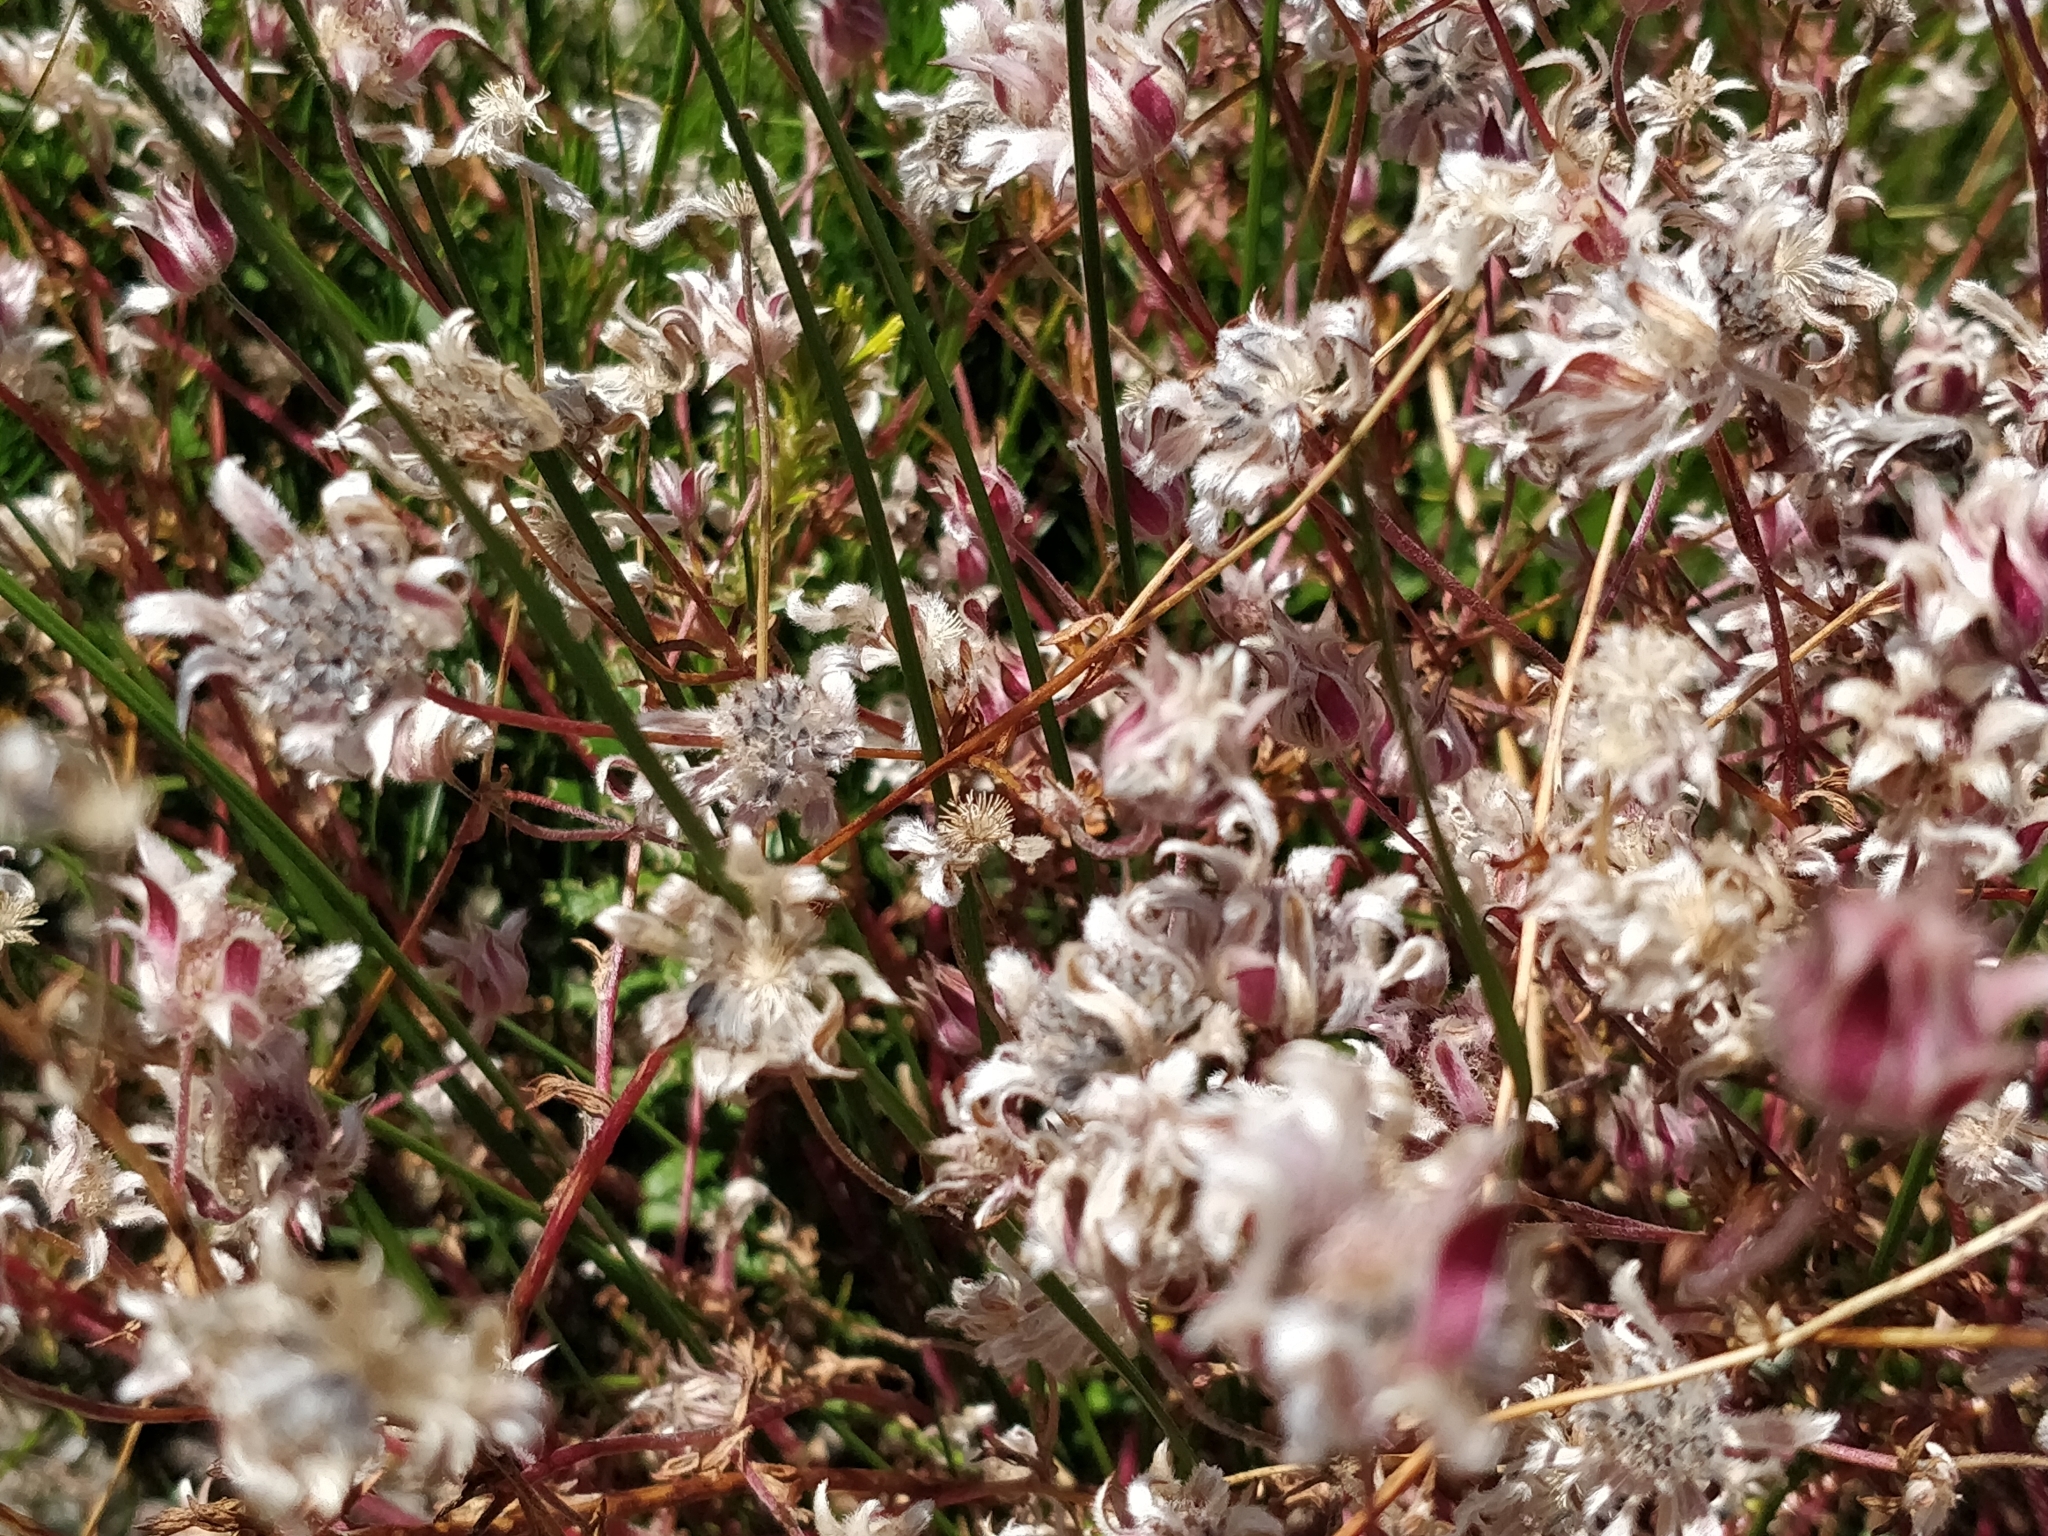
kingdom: Plantae
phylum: Tracheophyta
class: Magnoliopsida
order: Apiales
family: Apiaceae
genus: Actinotus
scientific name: Actinotus forsythii
